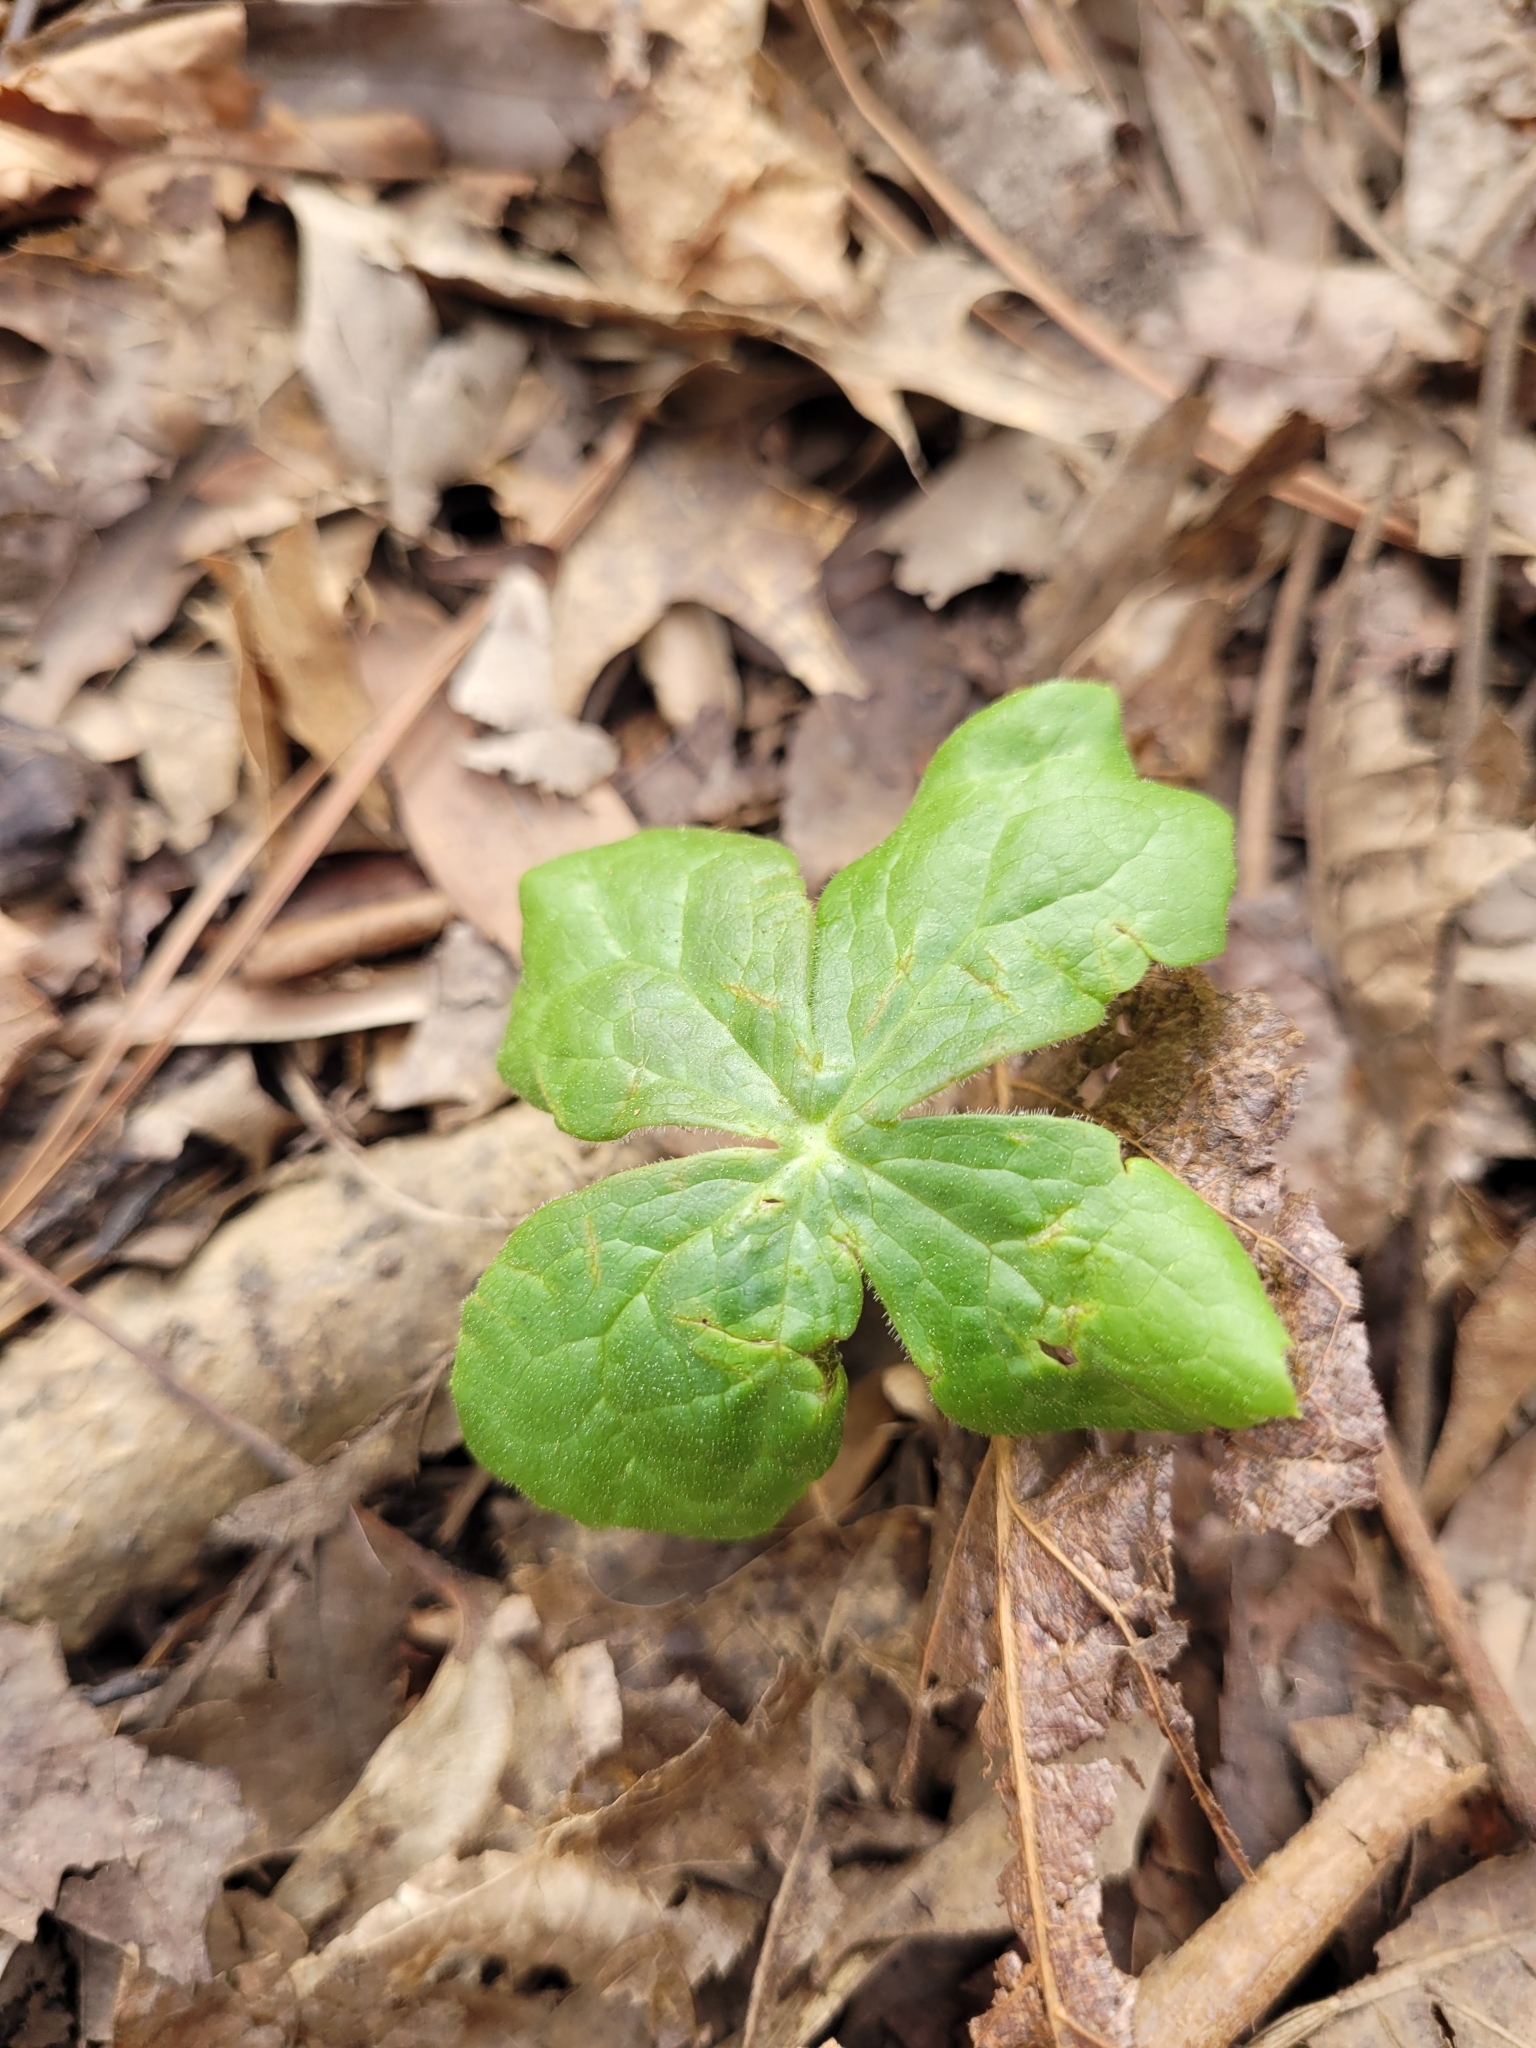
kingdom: Plantae
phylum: Tracheophyta
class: Magnoliopsida
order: Ranunculales
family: Berberidaceae
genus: Podophyllum
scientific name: Podophyllum peltatum
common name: Wild mandrake
